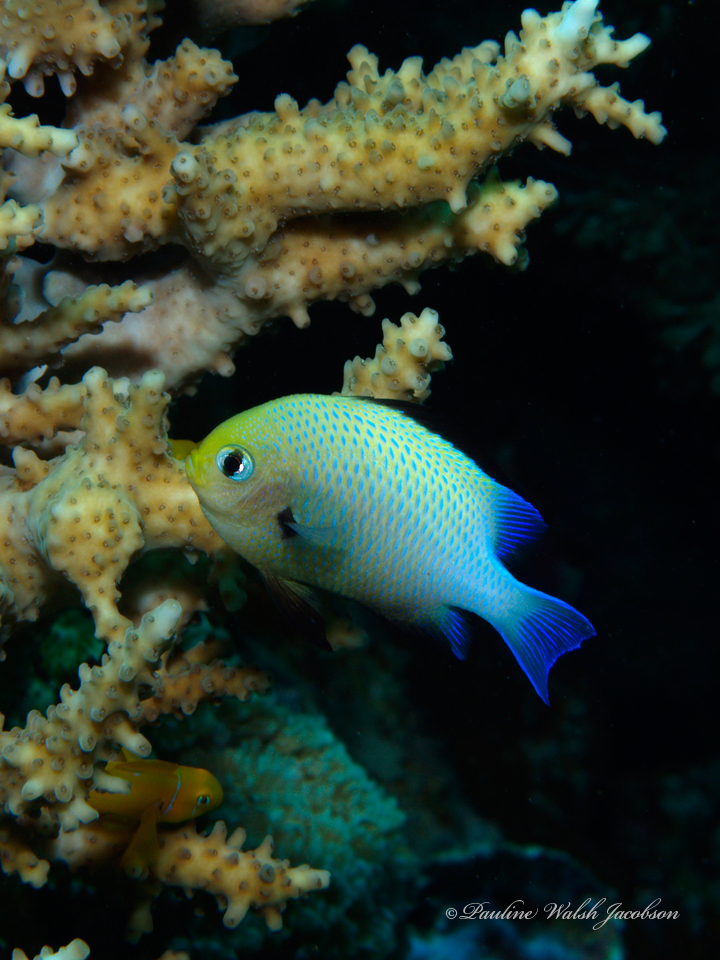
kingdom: Animalia
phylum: Chordata
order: Perciformes
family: Pomacentridae
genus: Dascyllus
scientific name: Dascyllus marginatus
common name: Red sea dascyllus
